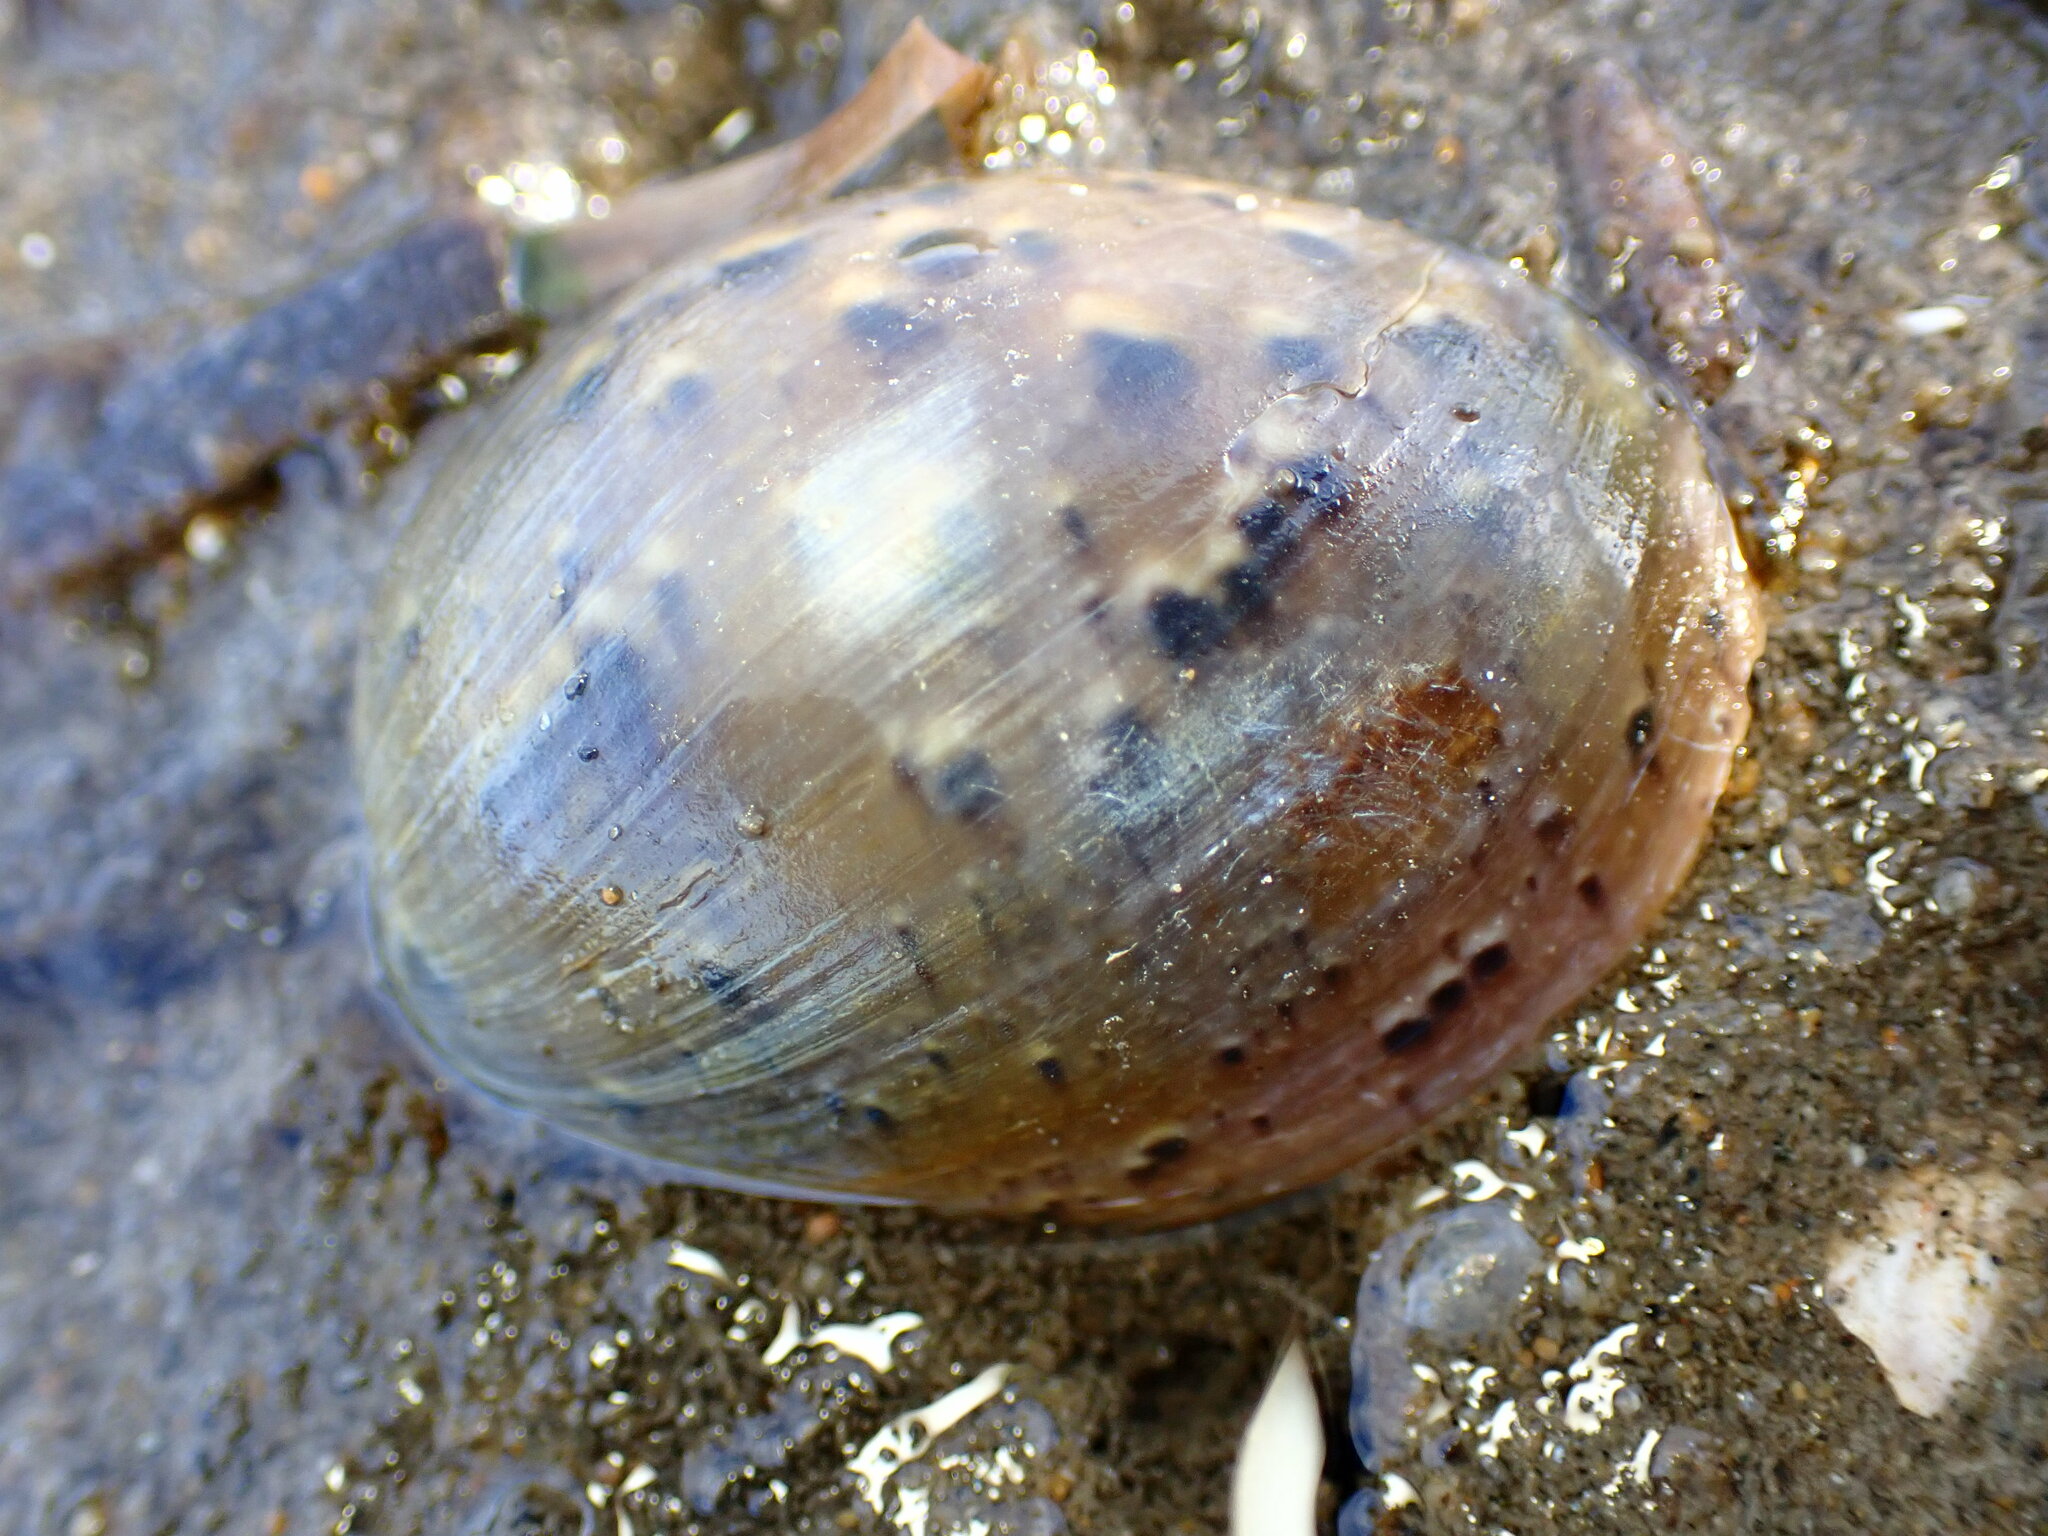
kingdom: Animalia
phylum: Mollusca
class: Gastropoda
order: Cephalaspidea
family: Bullidae
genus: Bulla
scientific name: Bulla gouldiana
